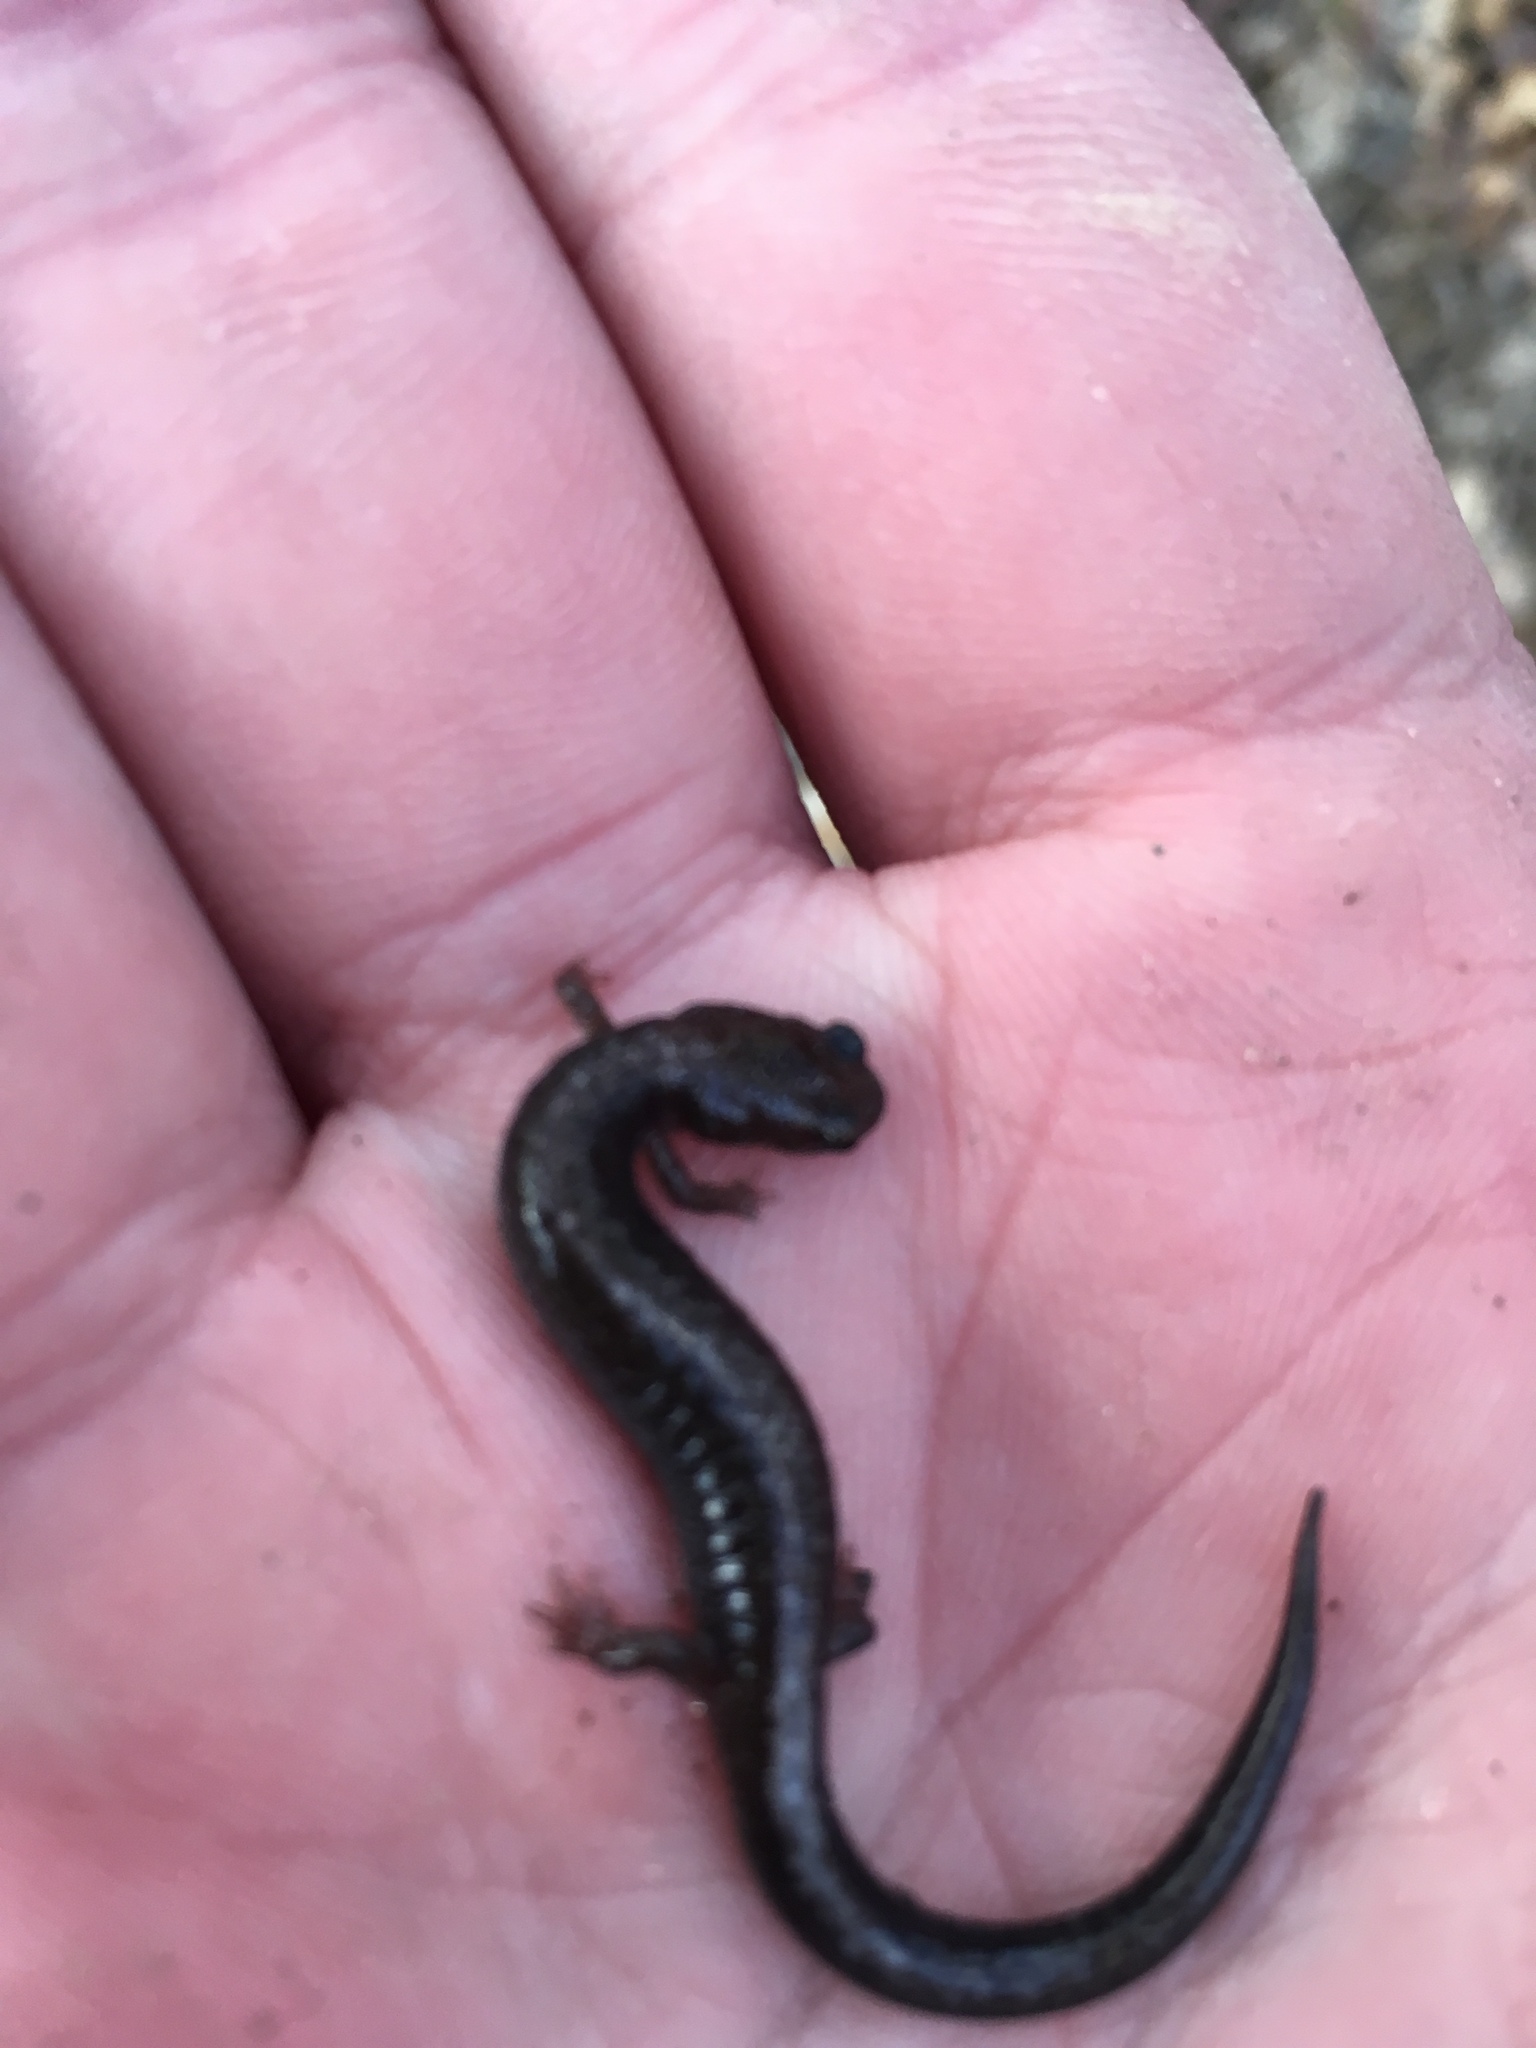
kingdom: Animalia
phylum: Chordata
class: Amphibia
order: Caudata
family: Plethodontidae
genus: Plethodon
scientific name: Plethodon cinereus
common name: Redback salamander
